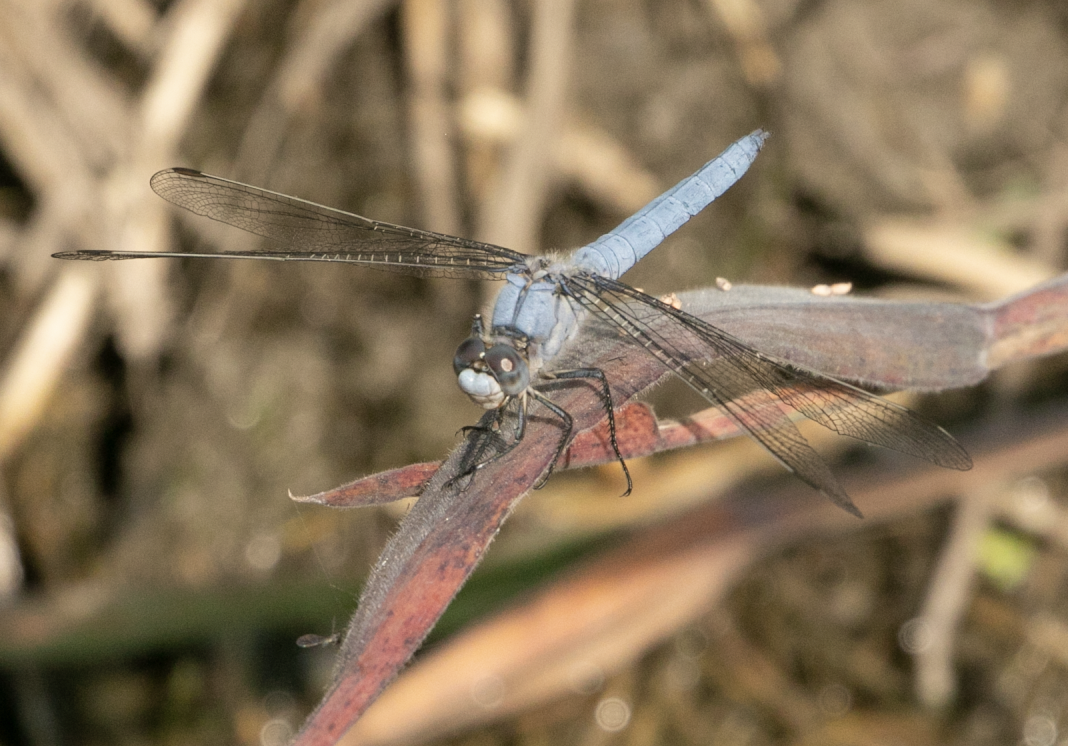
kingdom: Animalia
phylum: Arthropoda
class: Insecta
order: Odonata
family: Libellulidae
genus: Orthetrum
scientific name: Orthetrum brunneum
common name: Southern skimmer
